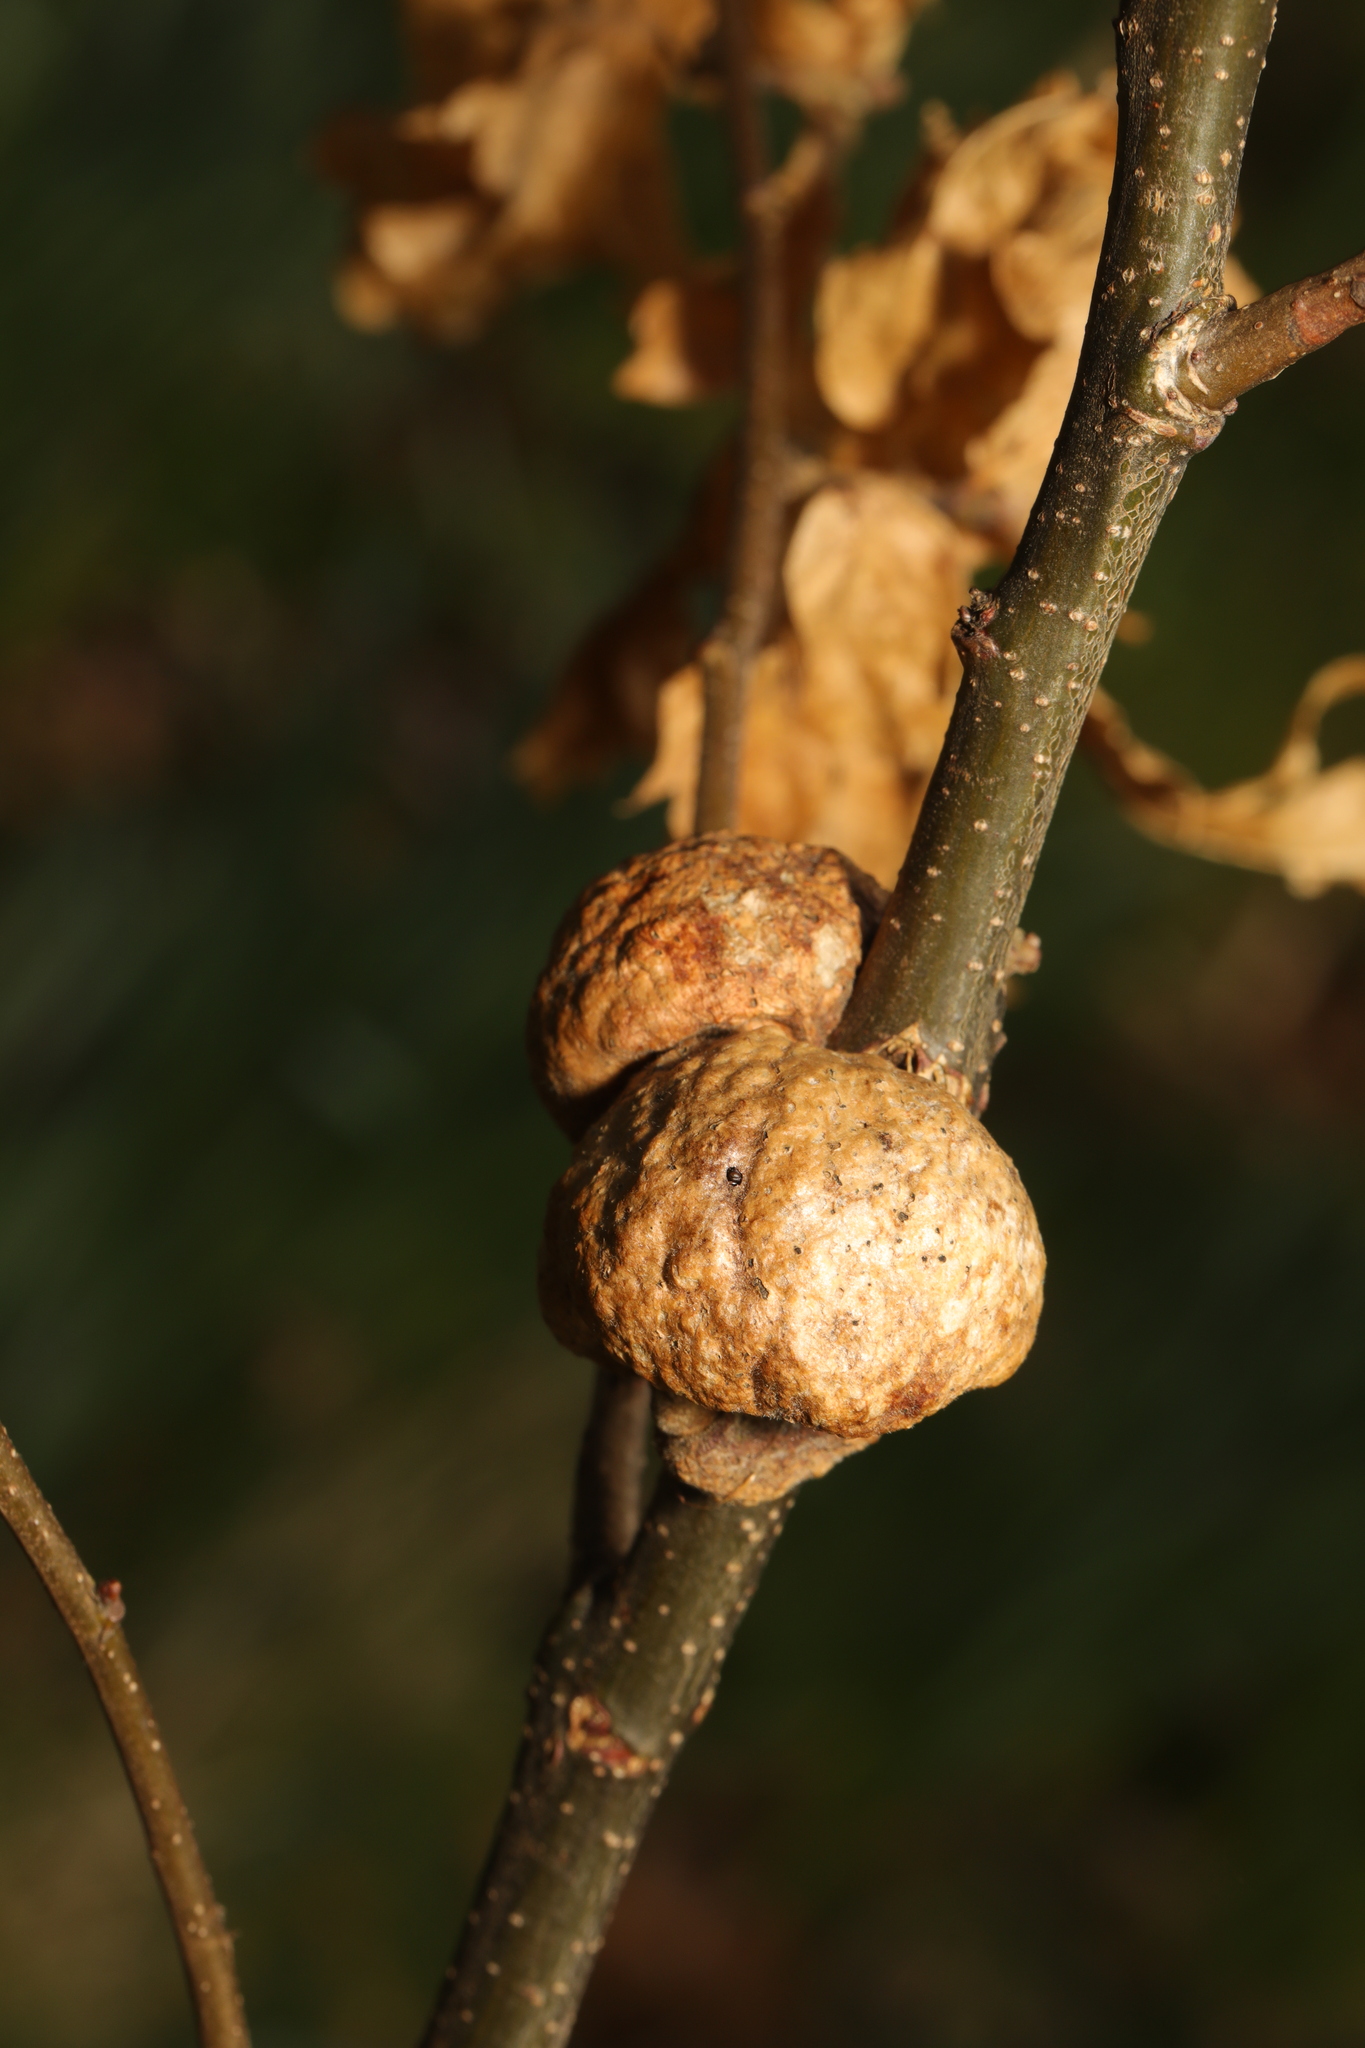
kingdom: Animalia
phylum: Arthropoda
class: Insecta
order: Hymenoptera
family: Cynipidae
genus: Aphelonyx
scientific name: Aphelonyx cerricola
